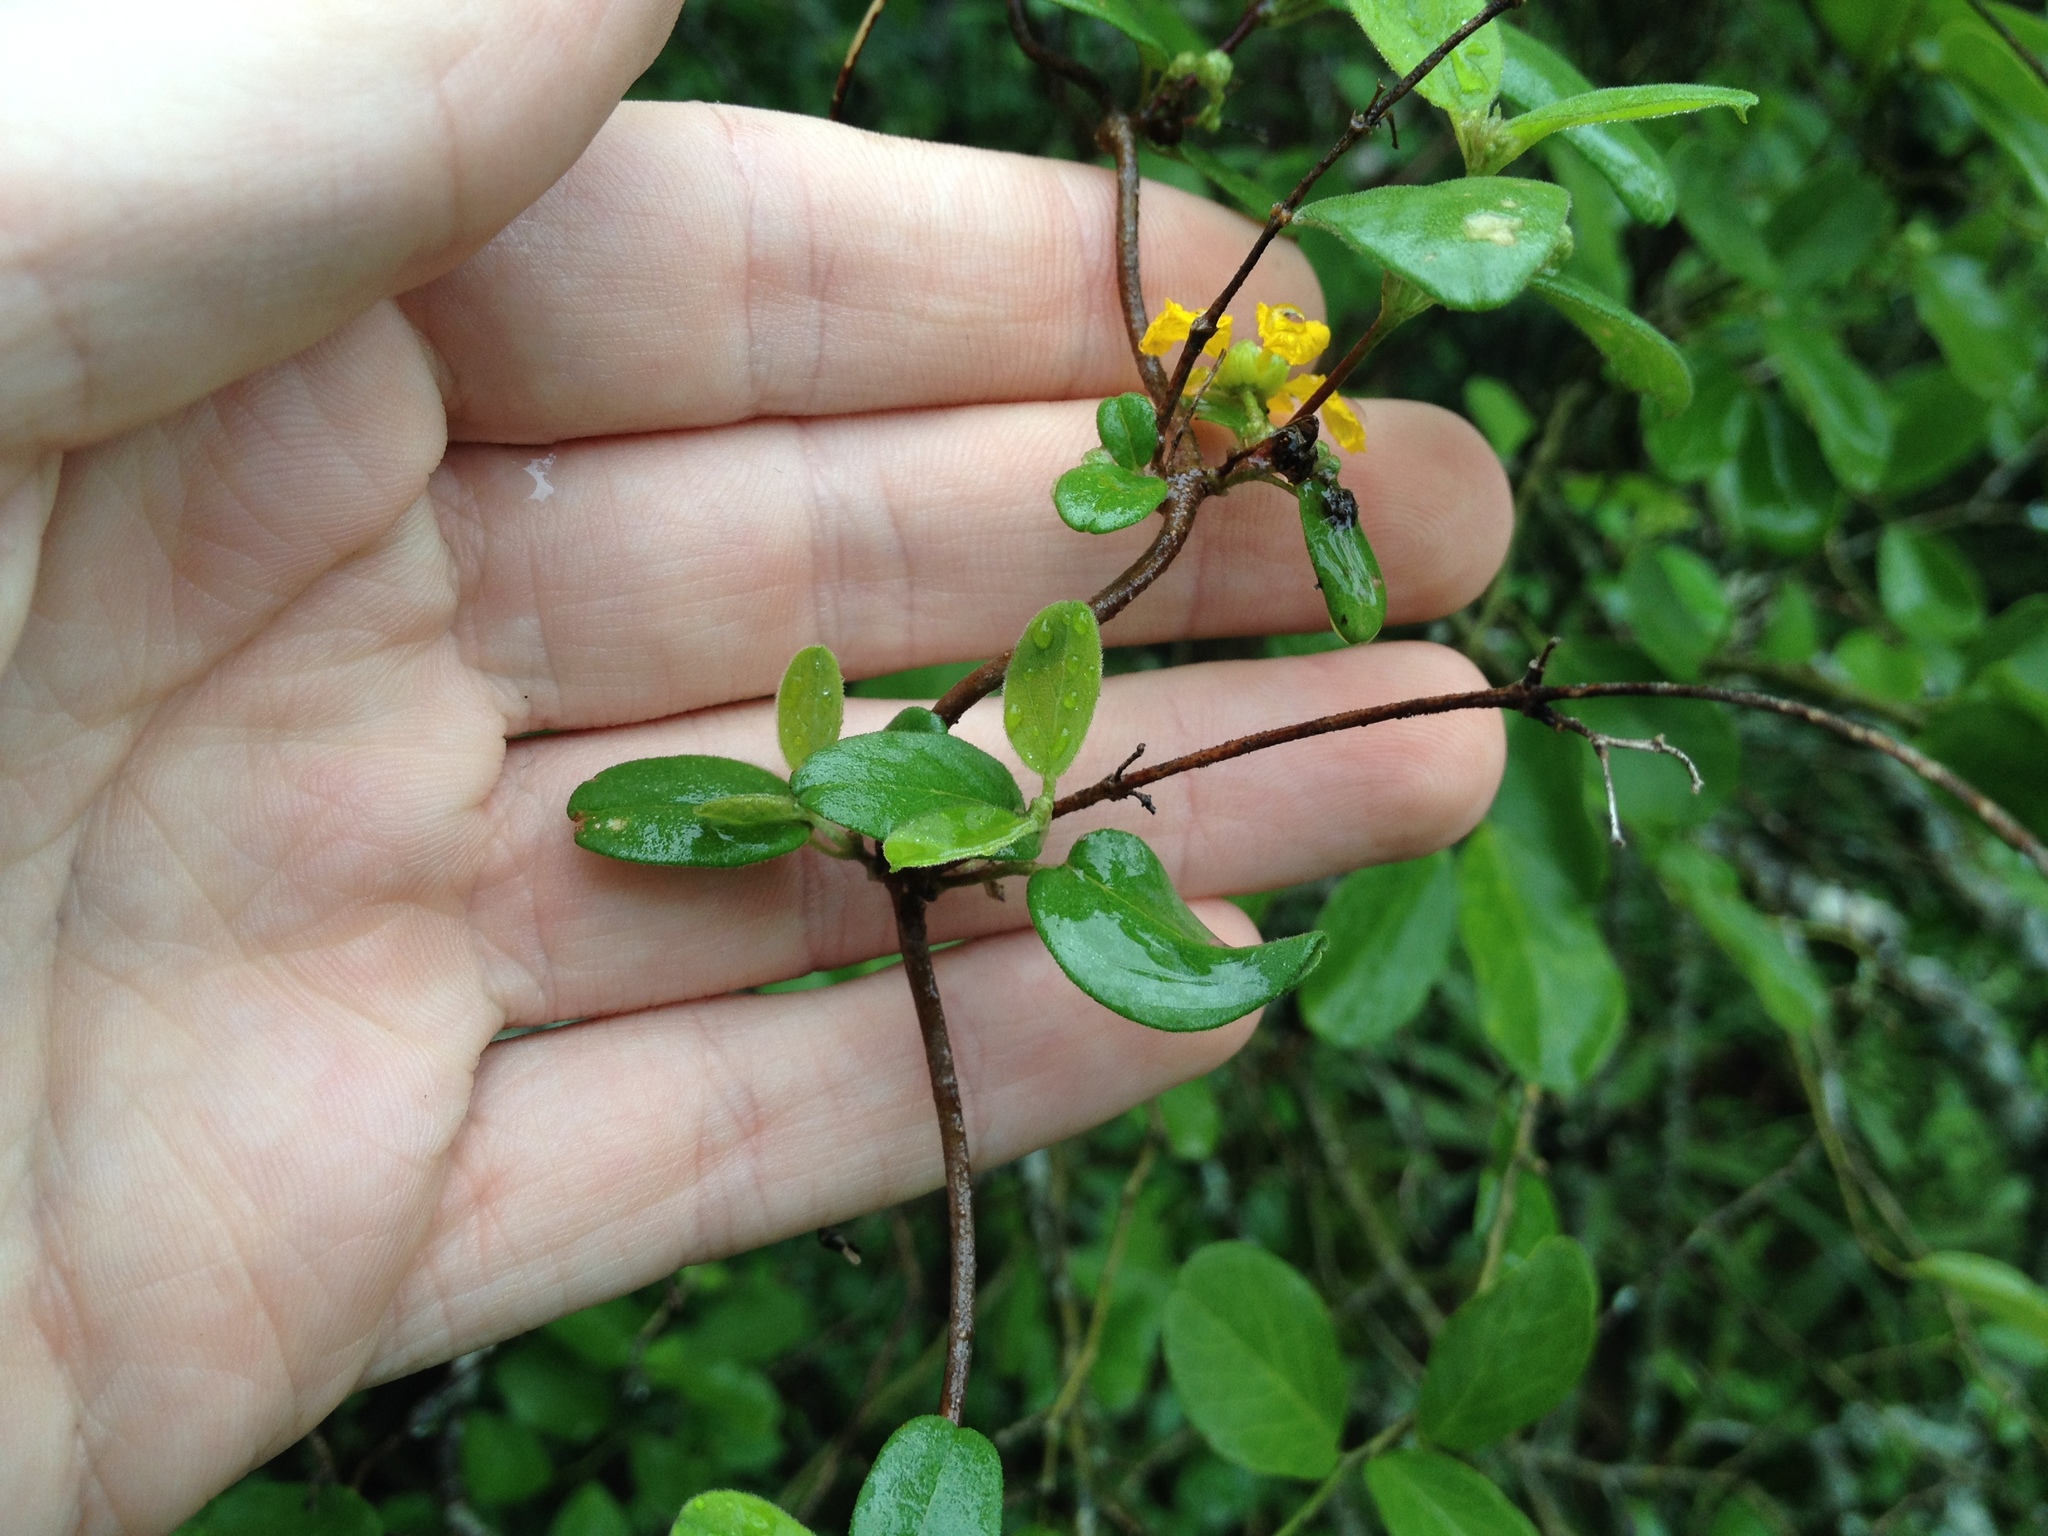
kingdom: Plantae
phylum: Tracheophyta
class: Magnoliopsida
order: Malpighiales
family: Malpighiaceae
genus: Janusia
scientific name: Janusia guaranitica
